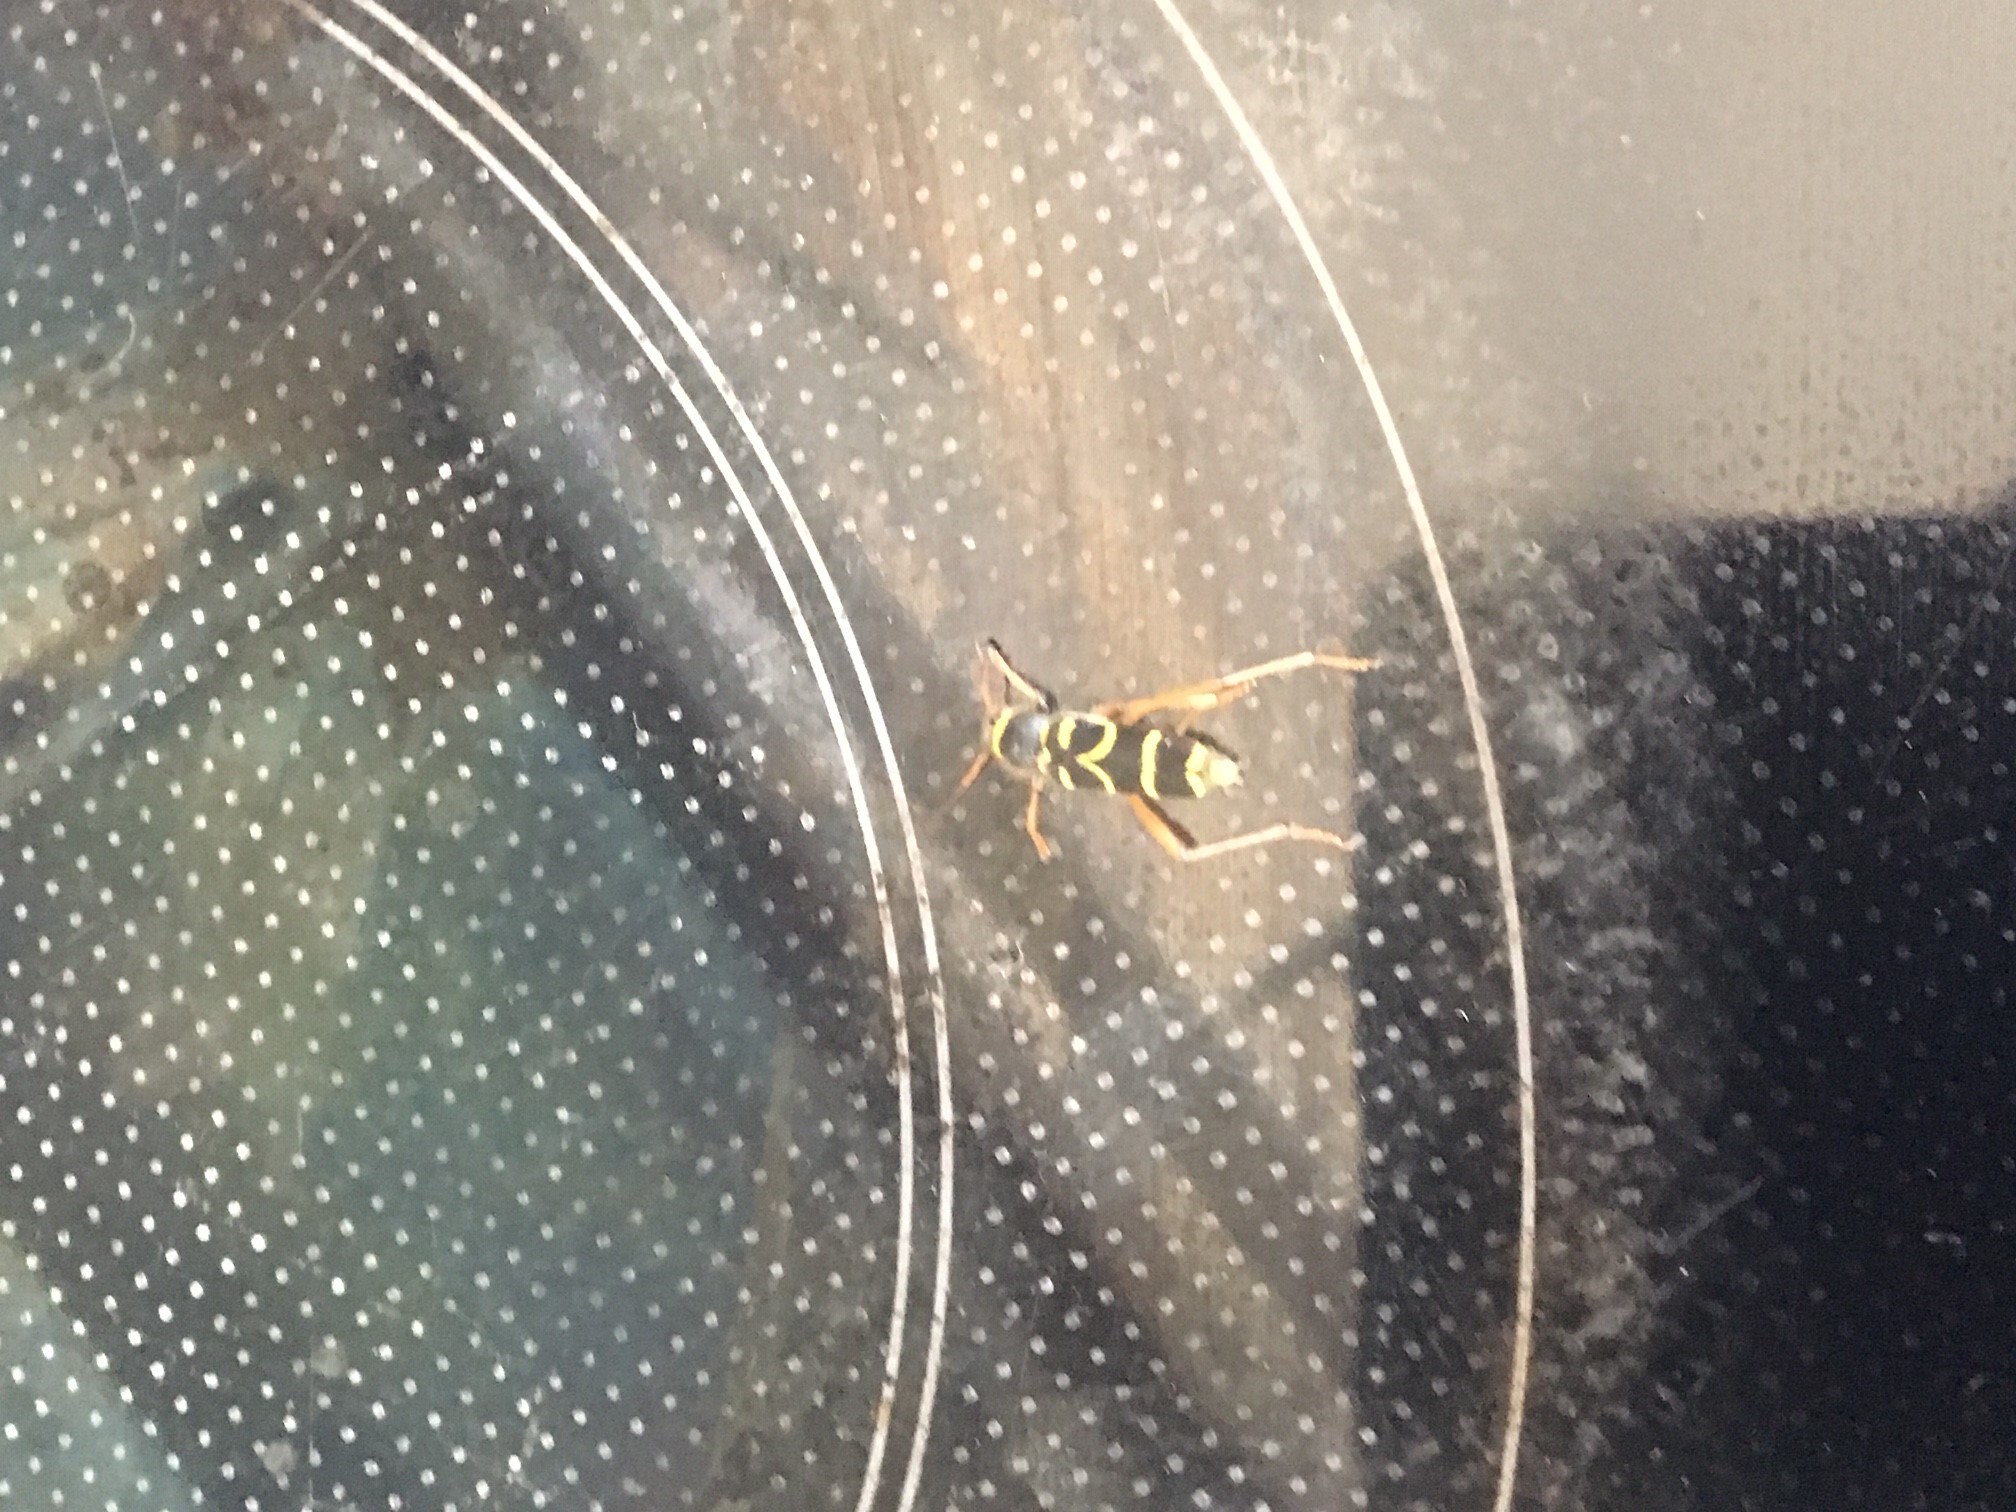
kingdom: Animalia
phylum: Arthropoda
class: Insecta
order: Coleoptera
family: Cerambycidae
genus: Clytus
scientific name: Clytus arietis
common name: Wasp beetle
